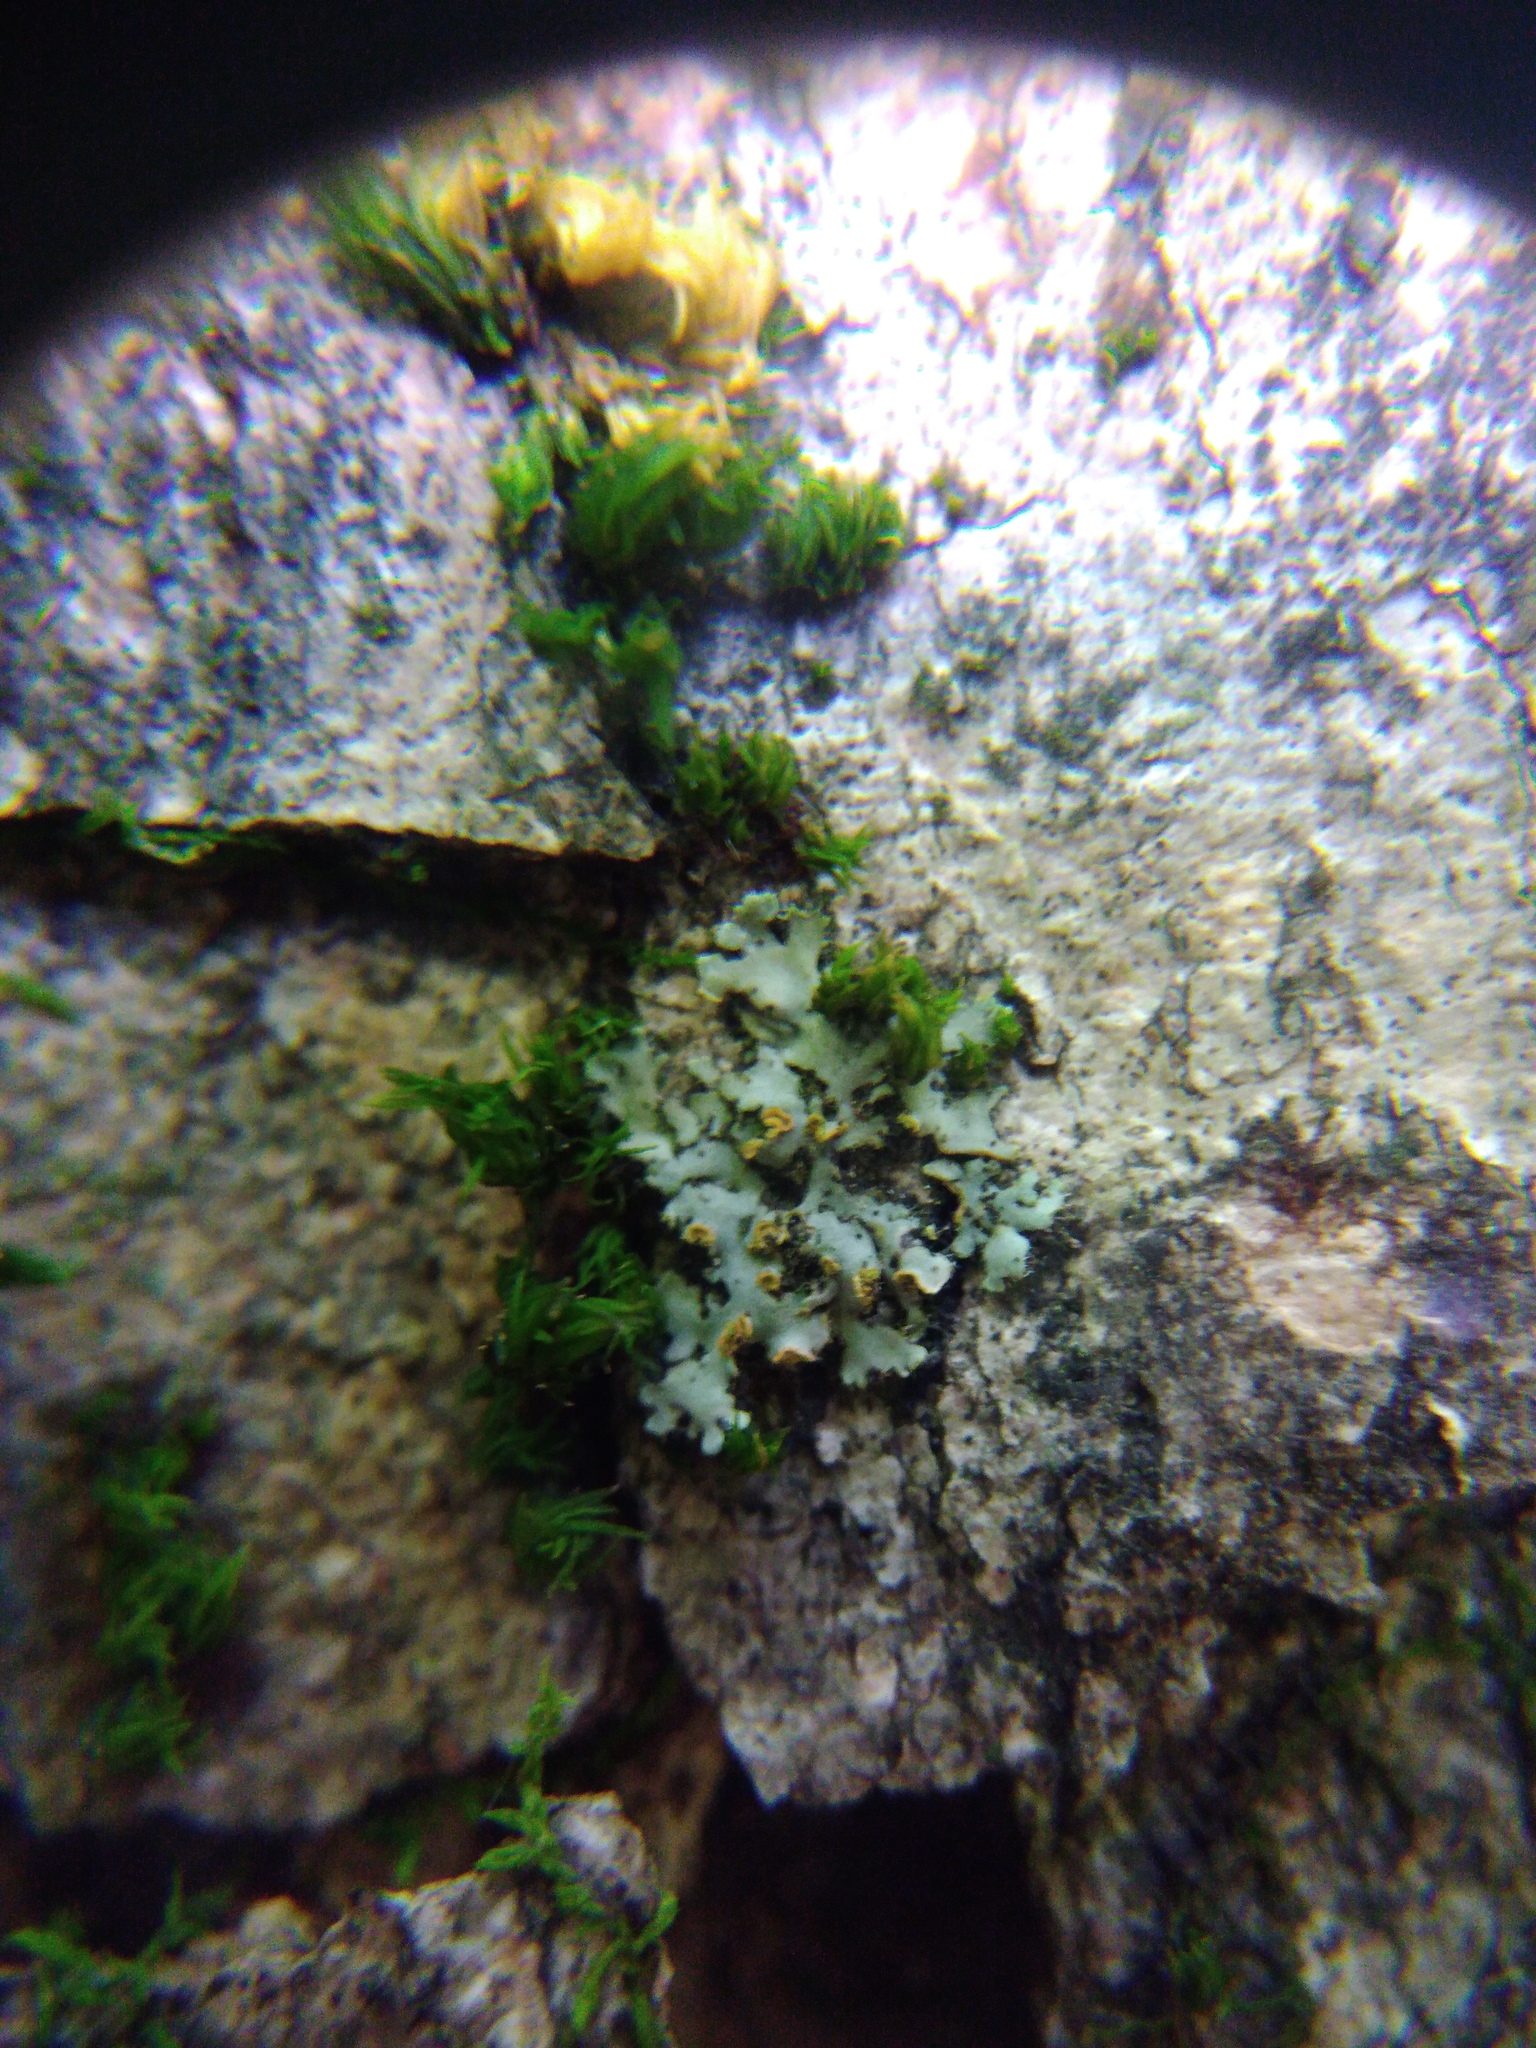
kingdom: Fungi
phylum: Ascomycota
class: Lecanoromycetes
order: Caliciales
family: Physciaceae
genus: Phaeophyscia
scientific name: Phaeophyscia endophoenicea
